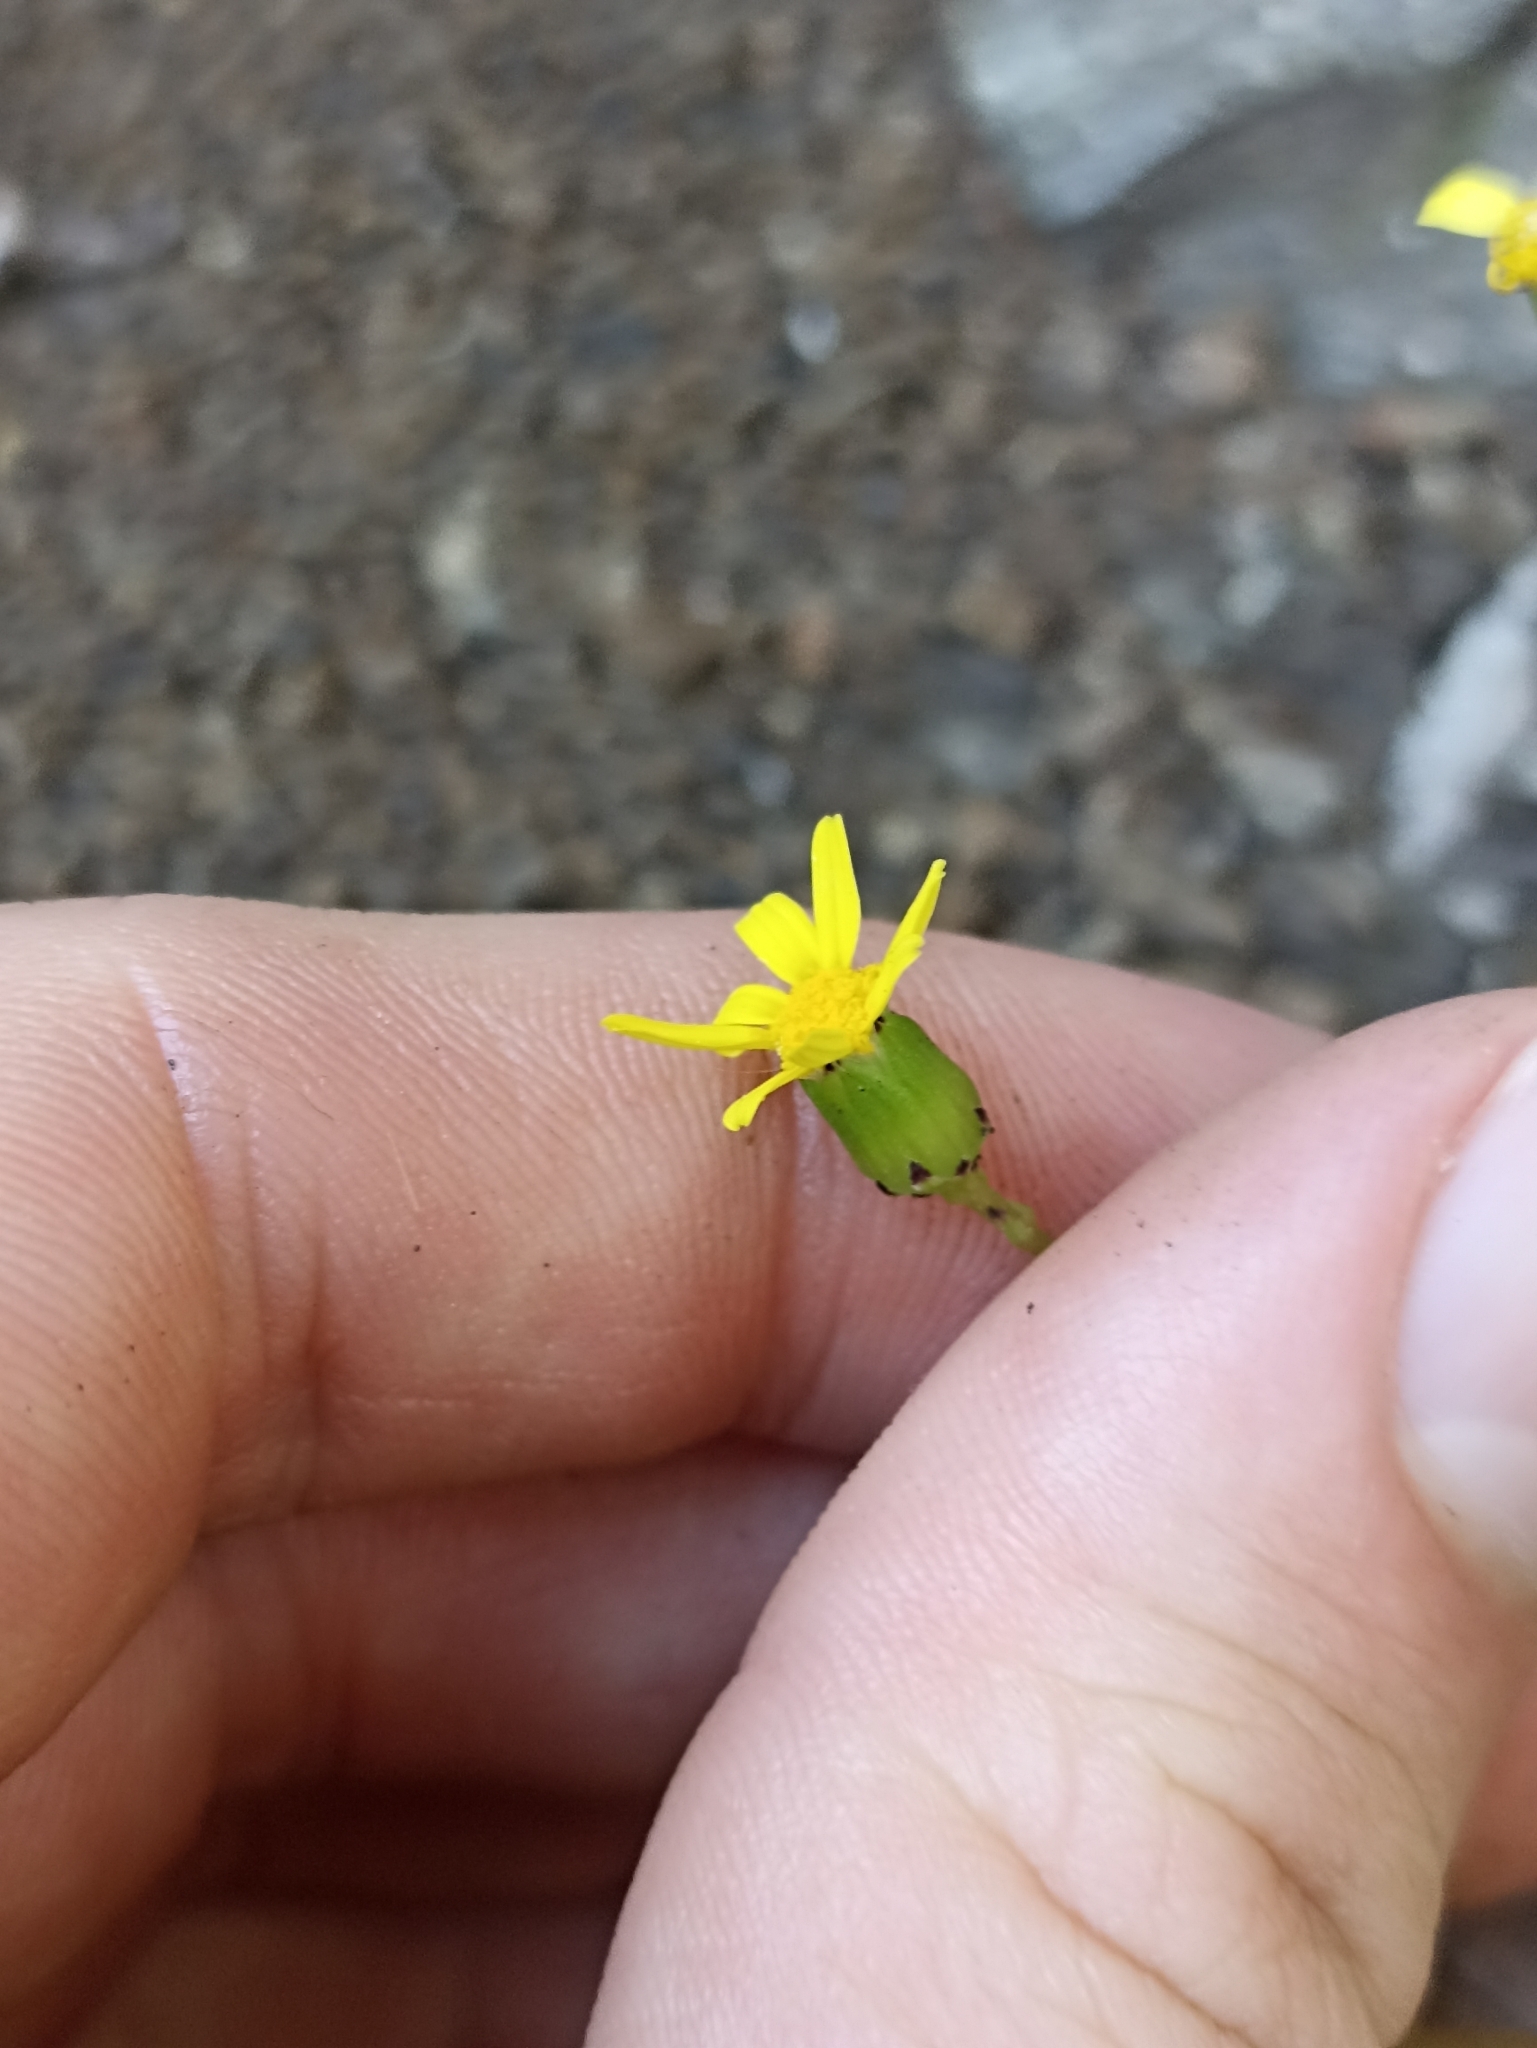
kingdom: Plantae
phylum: Tracheophyta
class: Magnoliopsida
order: Asterales
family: Asteraceae
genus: Senecio
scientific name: Senecio lautus
